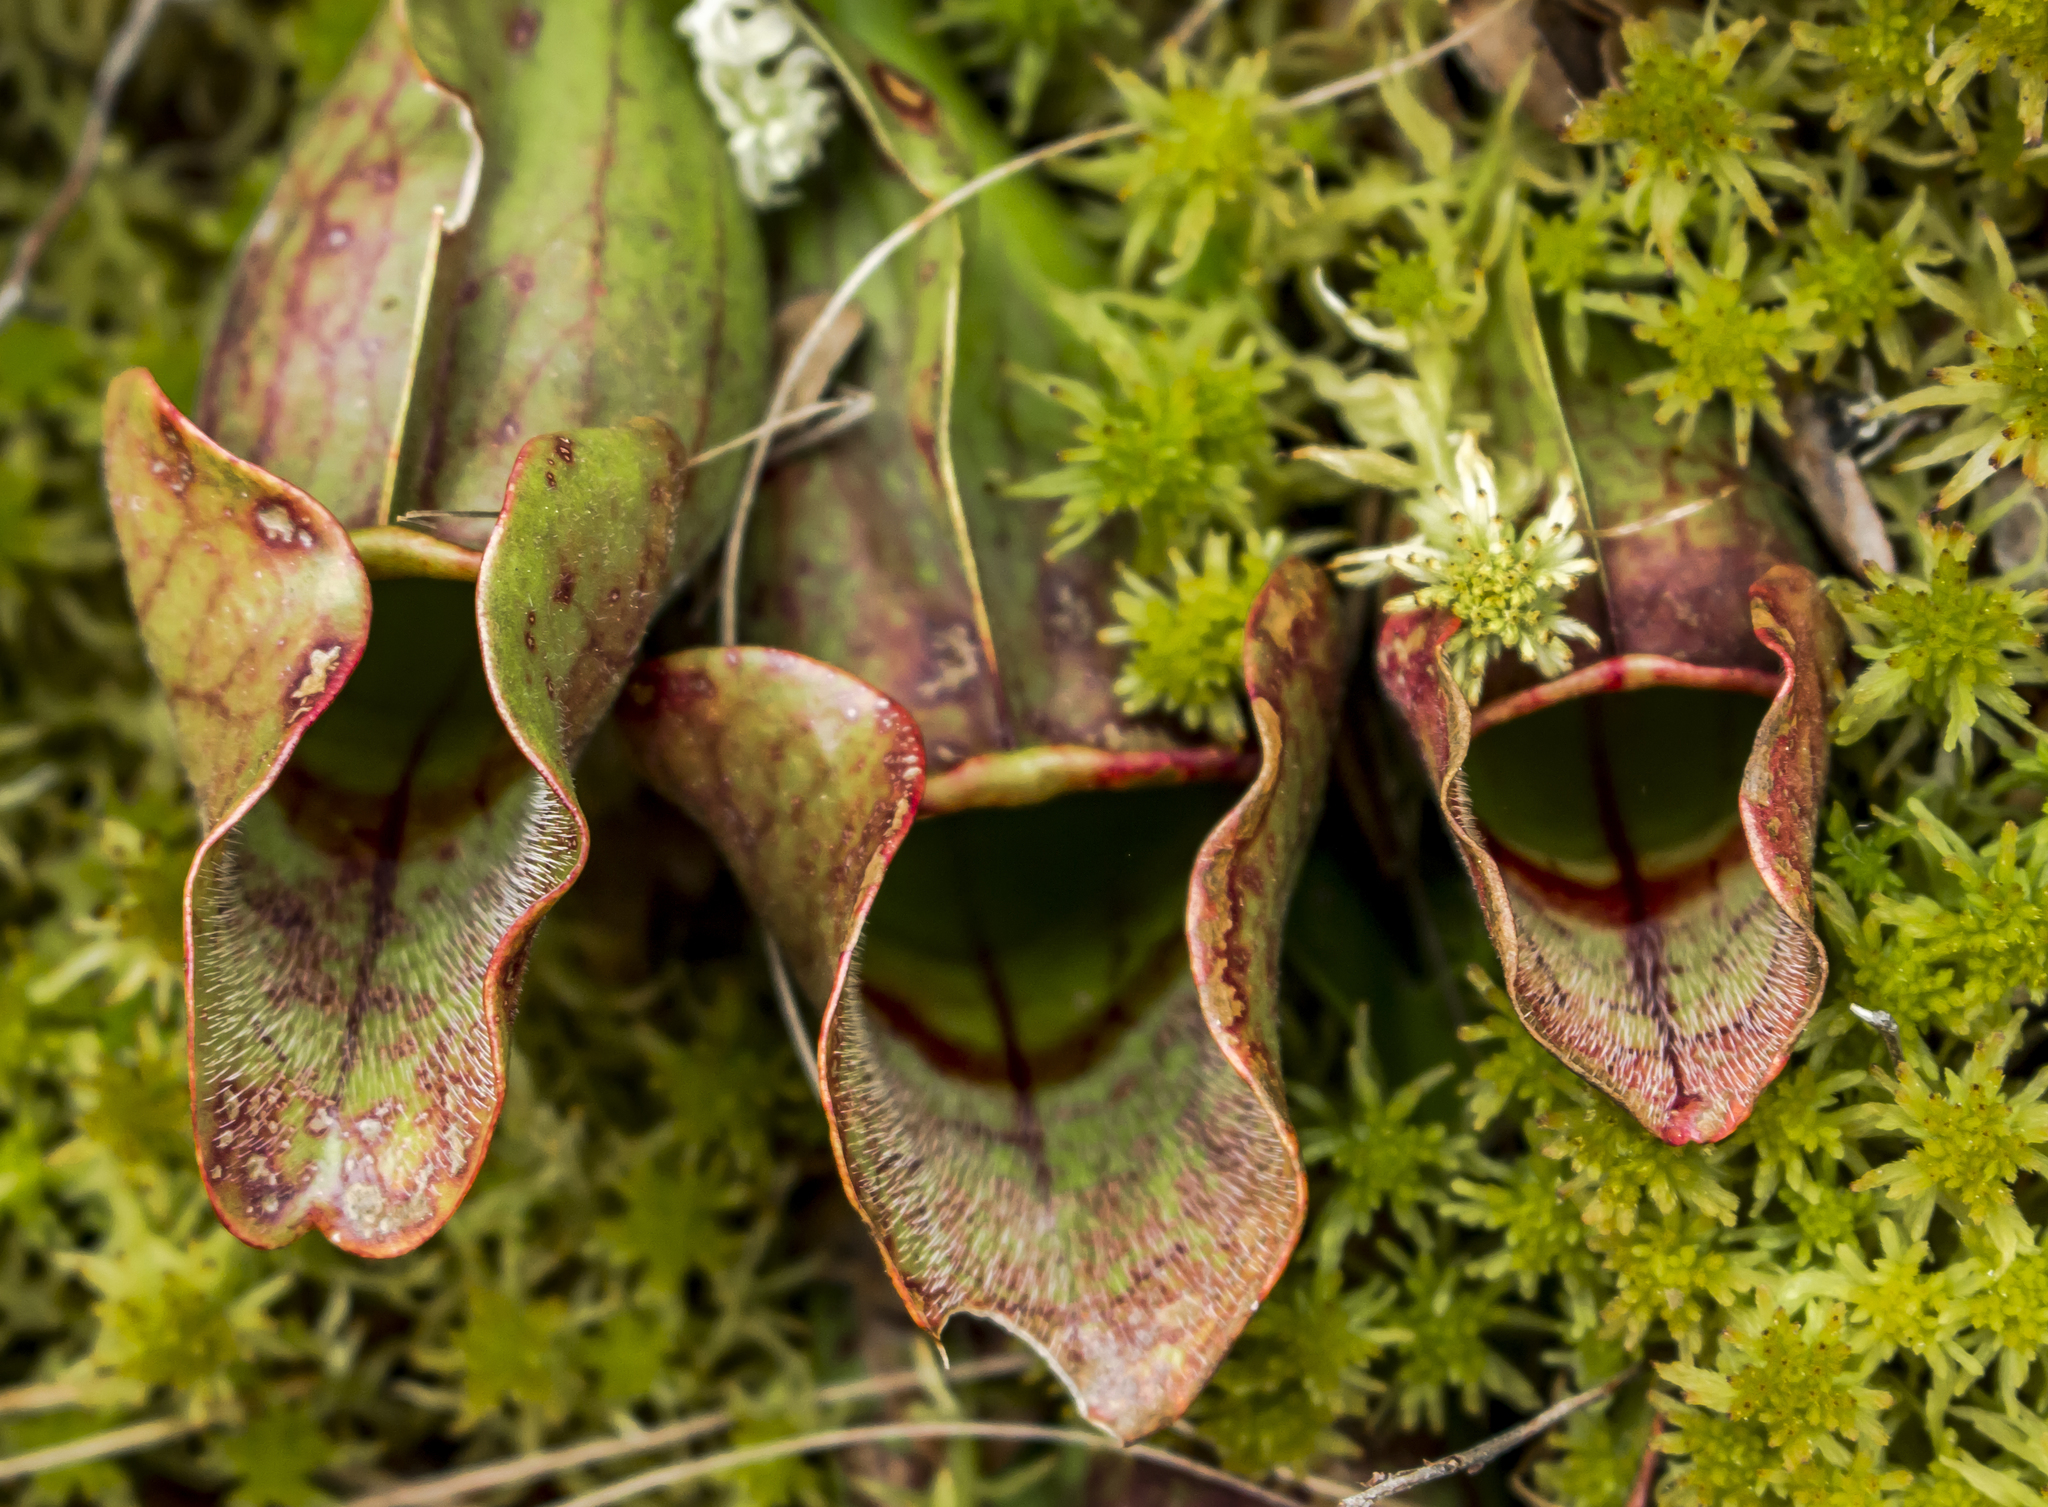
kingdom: Plantae
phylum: Tracheophyta
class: Magnoliopsida
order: Ericales
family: Sarraceniaceae
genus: Sarracenia
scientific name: Sarracenia purpurea
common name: Pitcherplant
